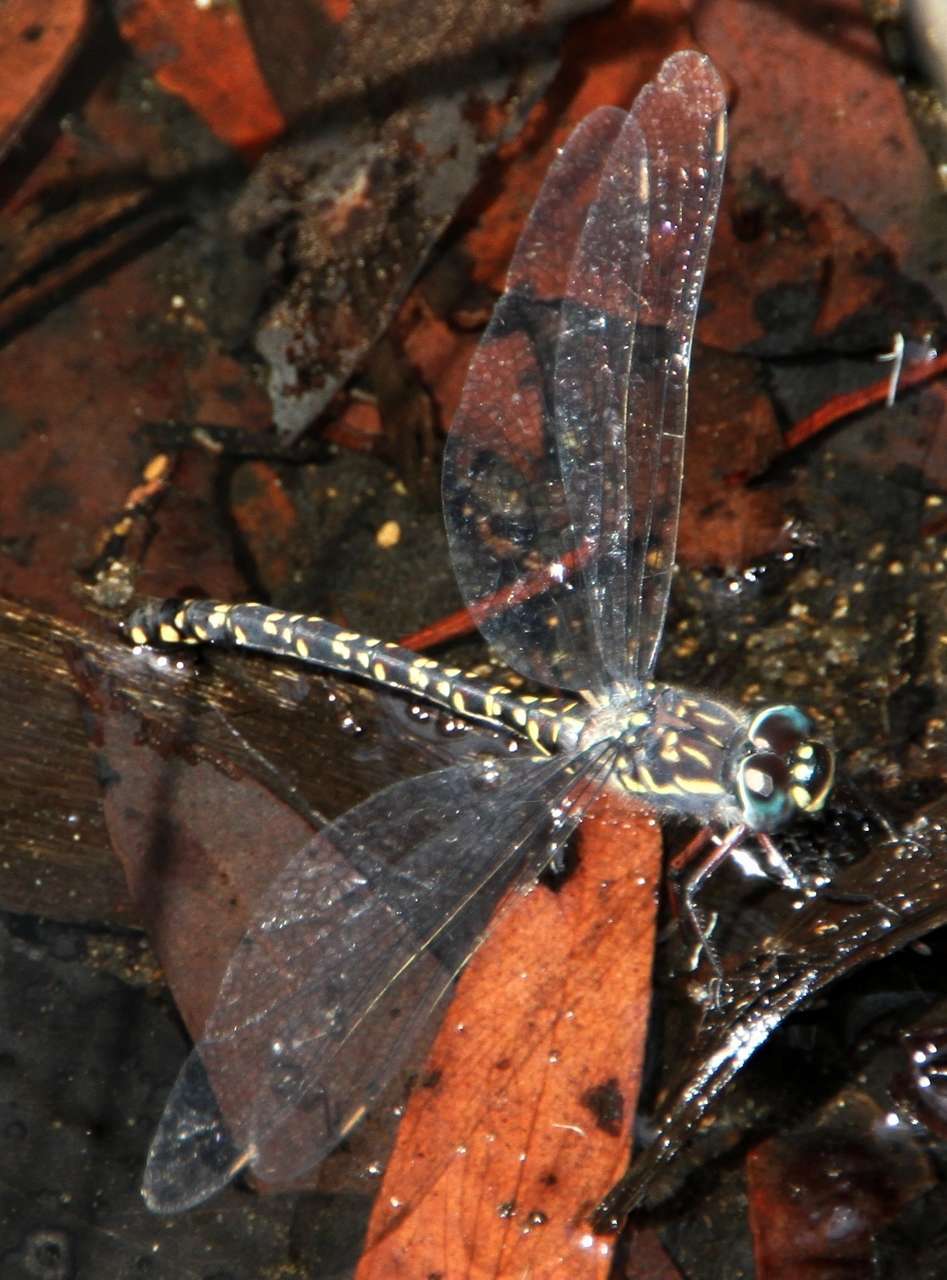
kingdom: Animalia
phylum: Arthropoda
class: Insecta
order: Odonata
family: Aeshnidae
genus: Austroaeschna
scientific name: Austroaeschna multipunctata
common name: Multi-spotted darner
